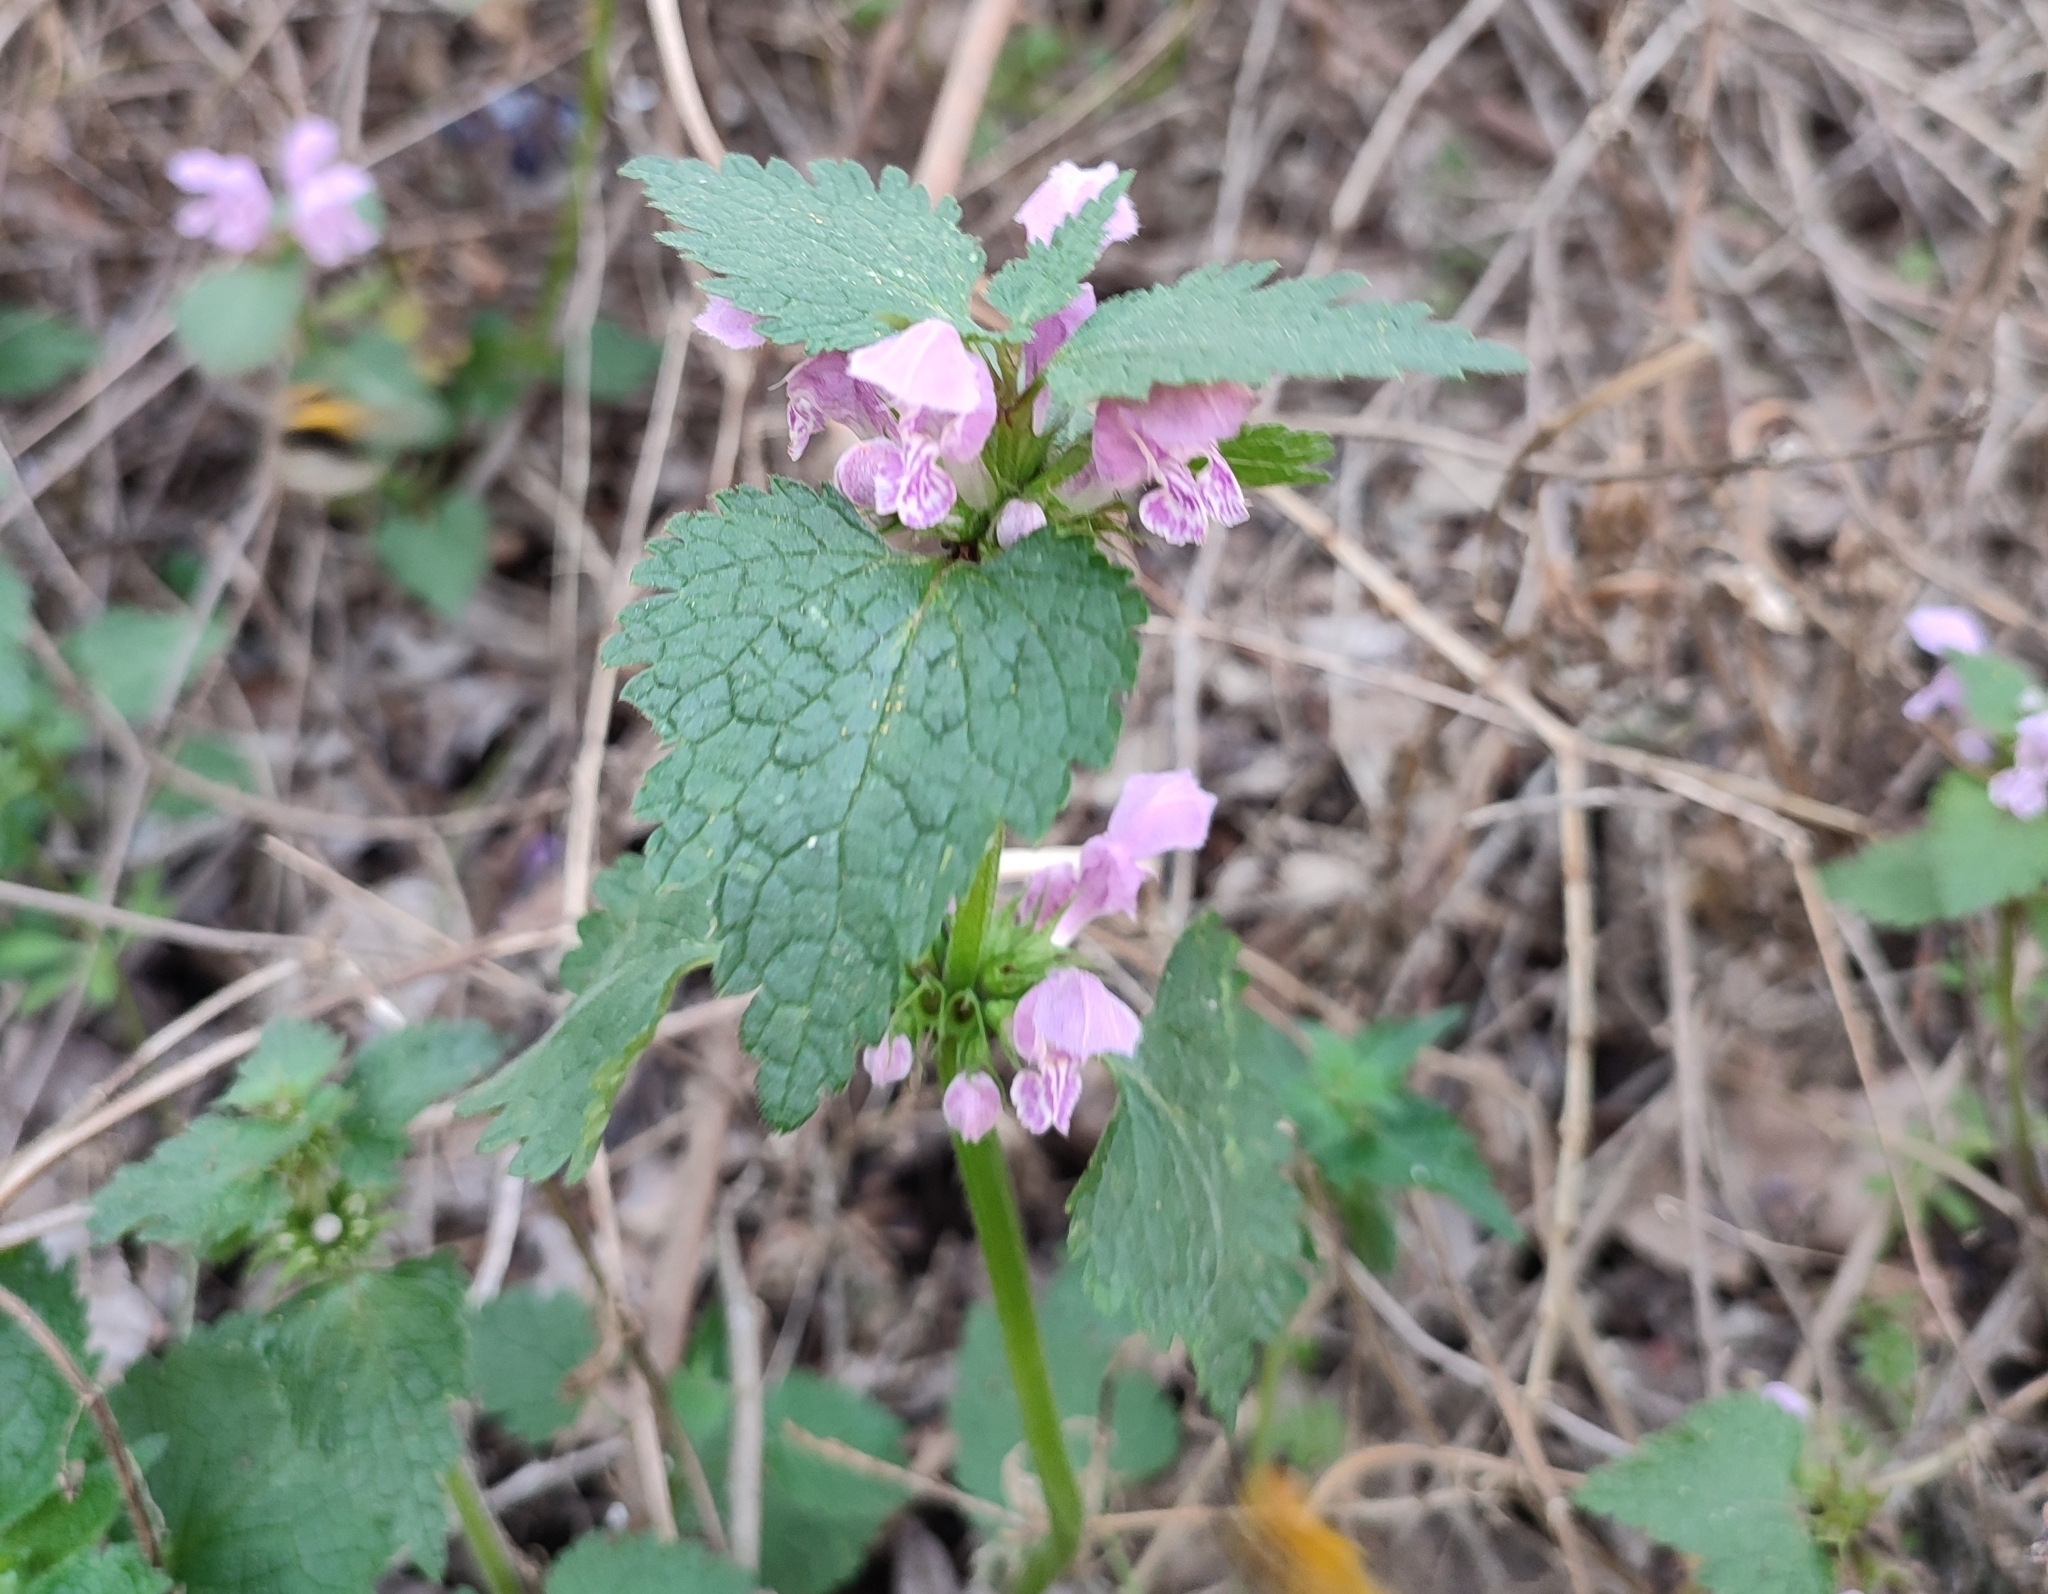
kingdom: Plantae
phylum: Tracheophyta
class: Magnoliopsida
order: Lamiales
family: Lamiaceae
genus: Lamium
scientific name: Lamium maculatum
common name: Spotted dead-nettle
